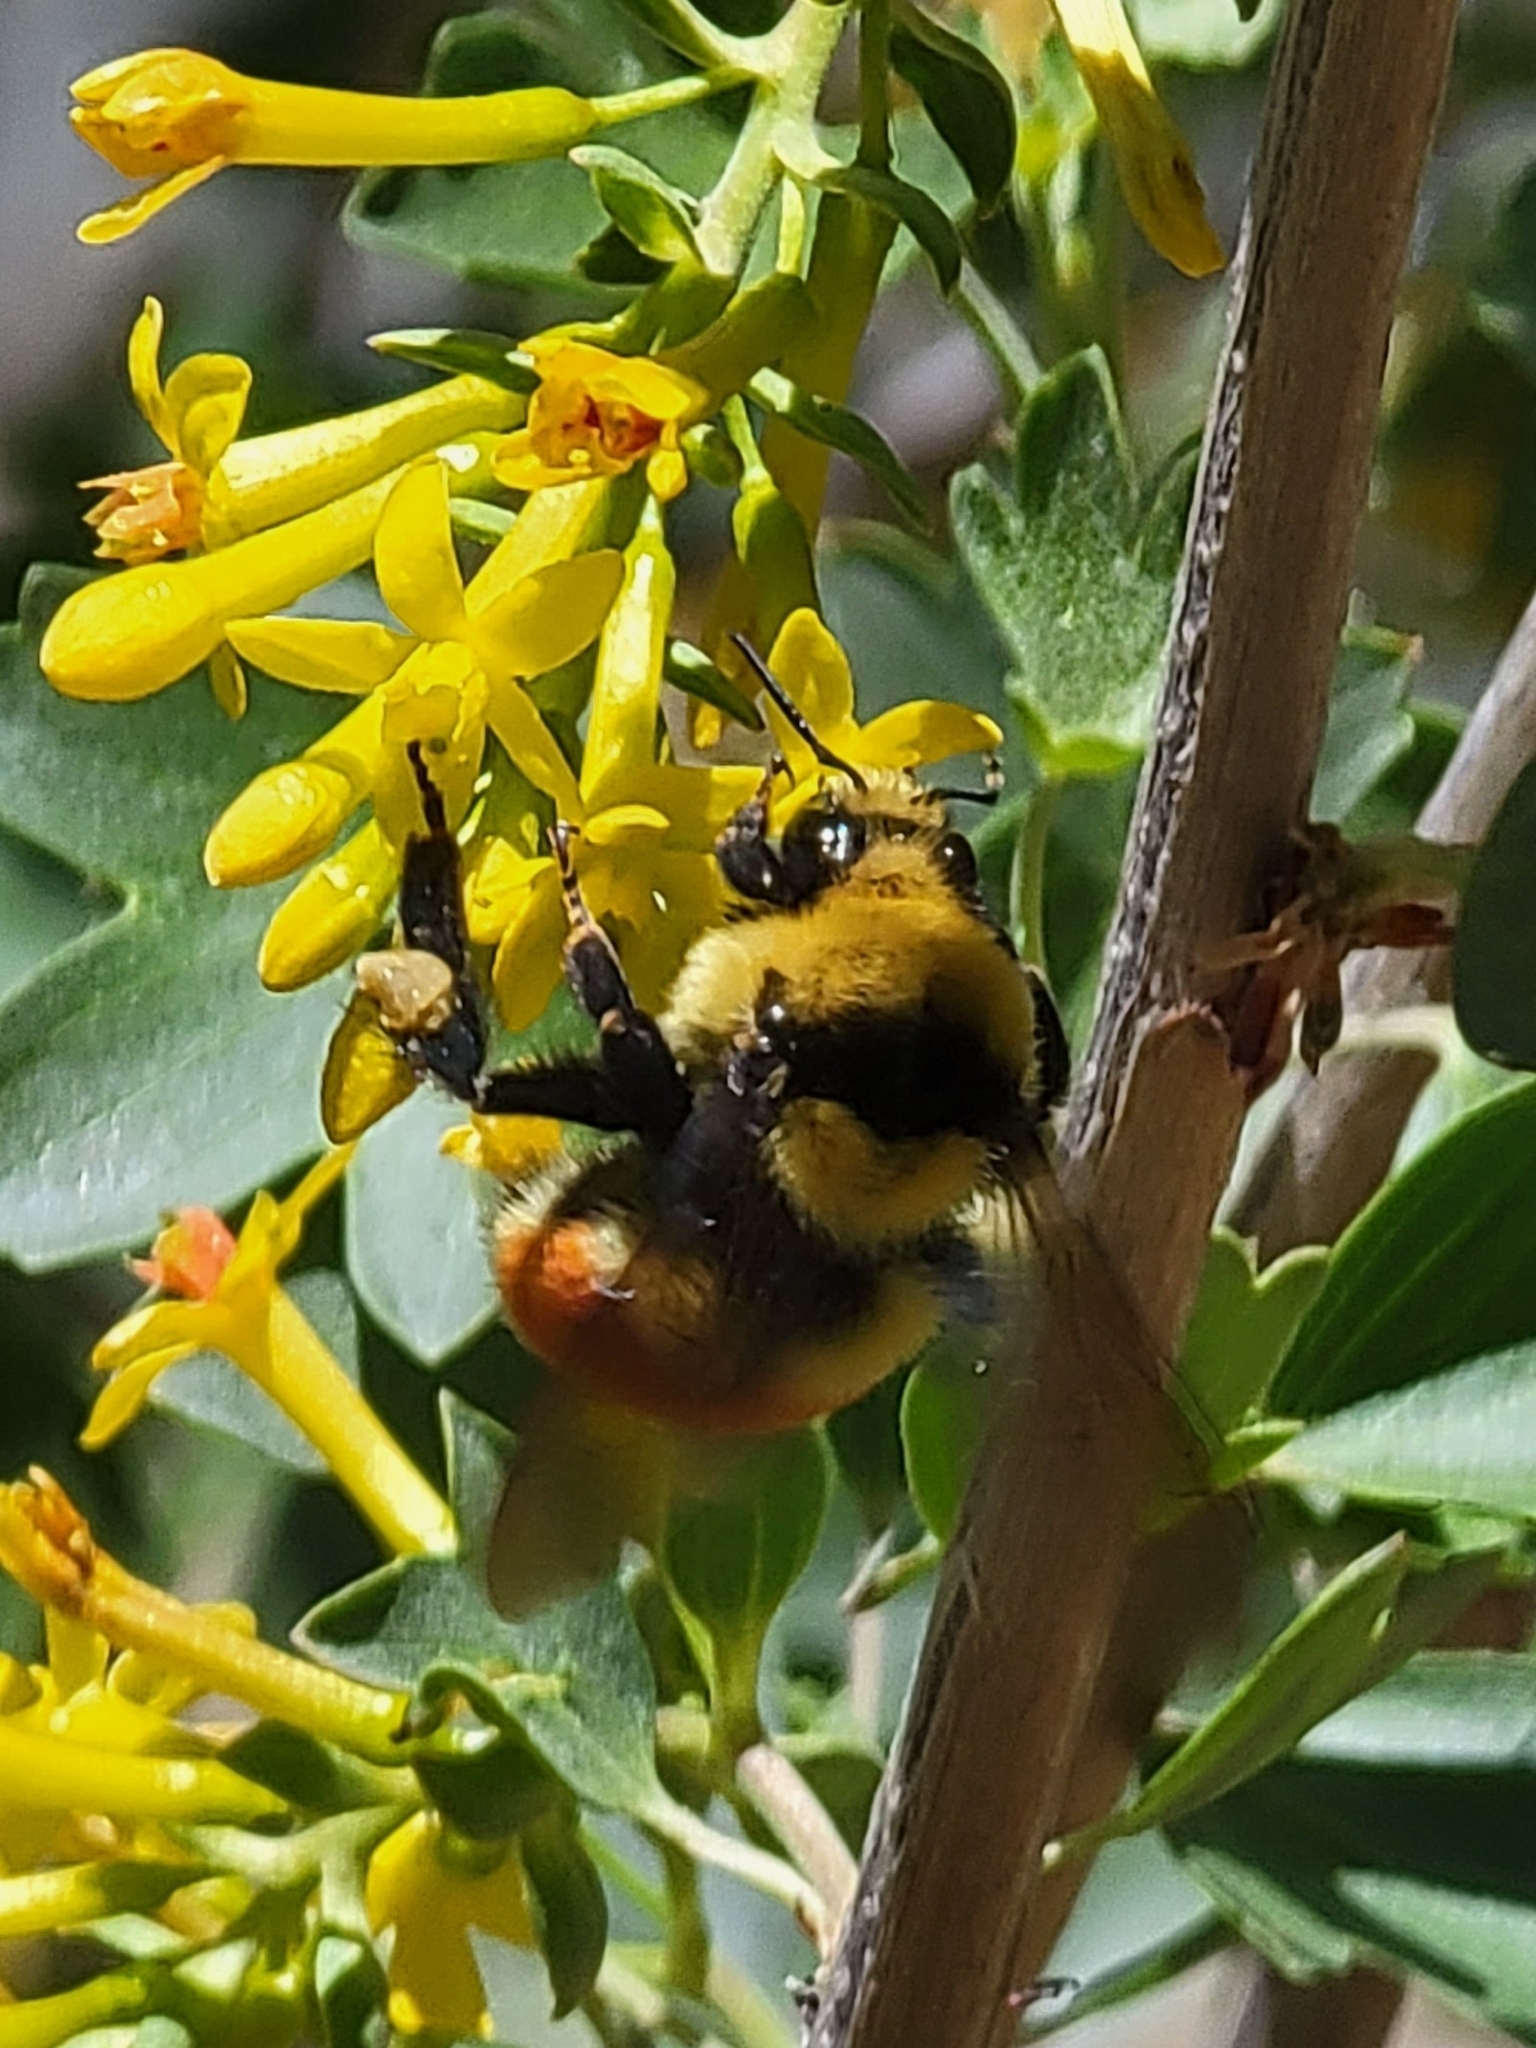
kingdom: Animalia
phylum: Arthropoda
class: Insecta
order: Hymenoptera
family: Apidae
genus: Bombus
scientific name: Bombus huntii
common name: Hunt bumble bee
